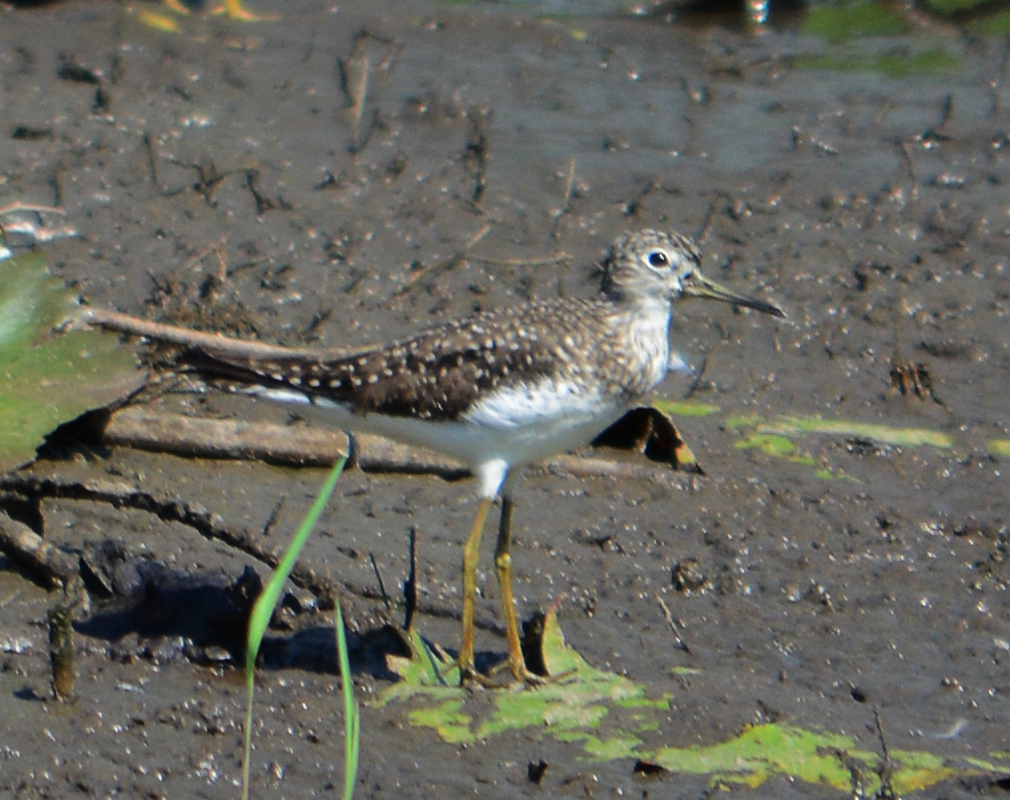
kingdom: Animalia
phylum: Chordata
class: Aves
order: Charadriiformes
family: Scolopacidae
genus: Tringa
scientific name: Tringa solitaria
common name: Solitary sandpiper
